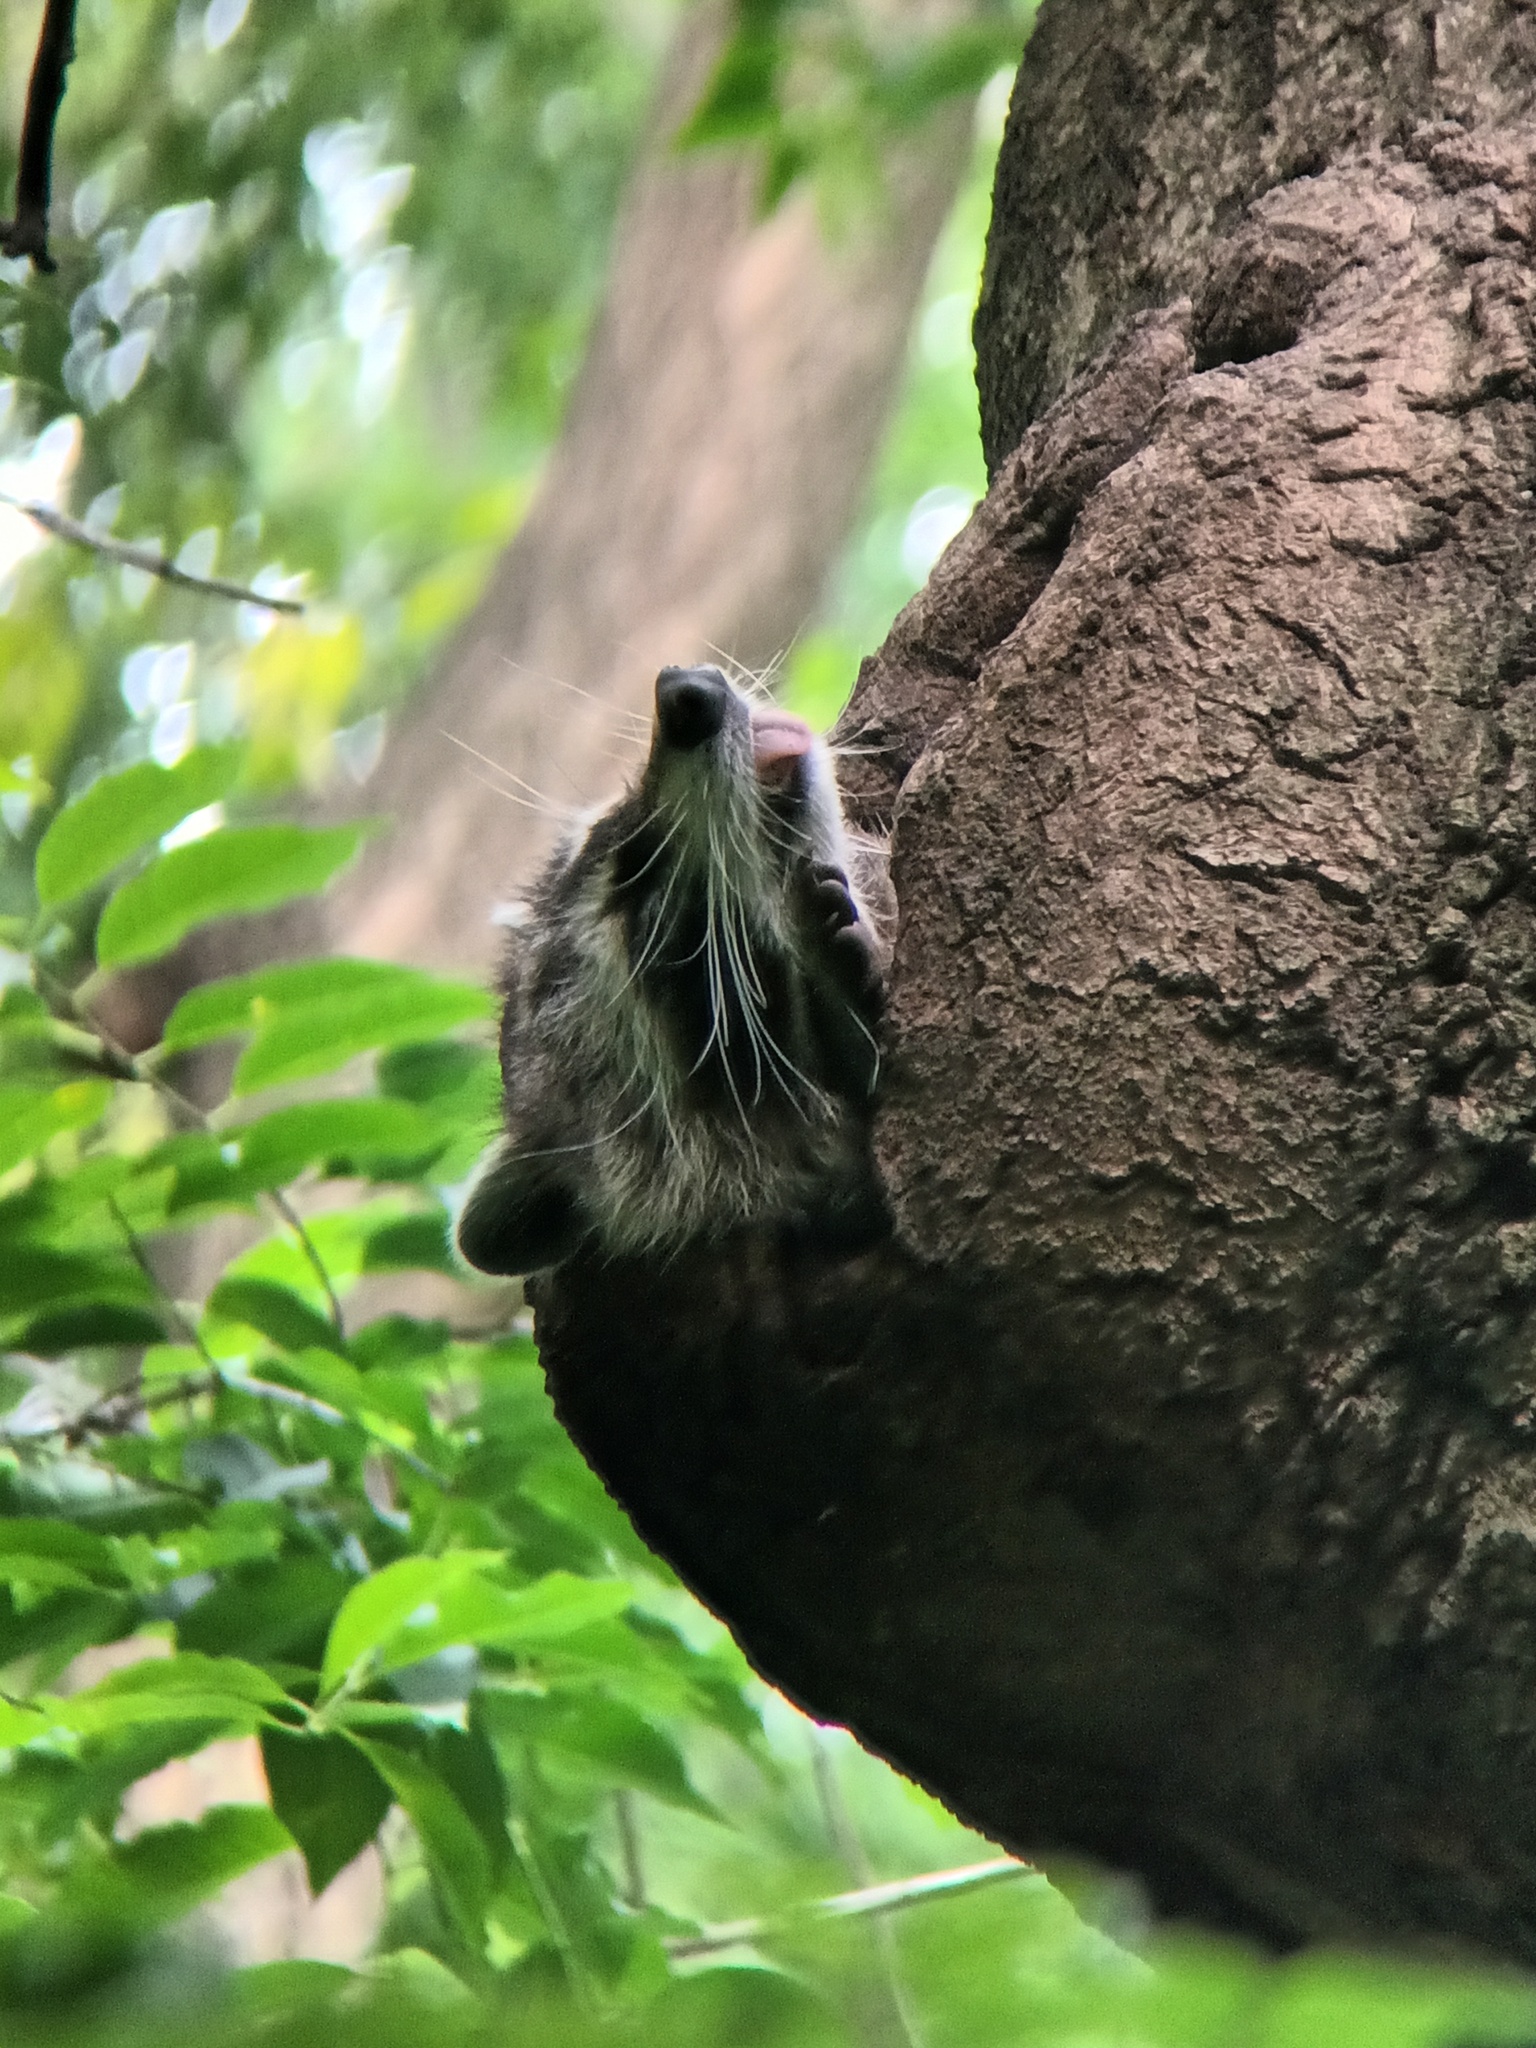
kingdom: Animalia
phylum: Chordata
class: Mammalia
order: Carnivora
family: Procyonidae
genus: Procyon
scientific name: Procyon lotor
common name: Raccoon
